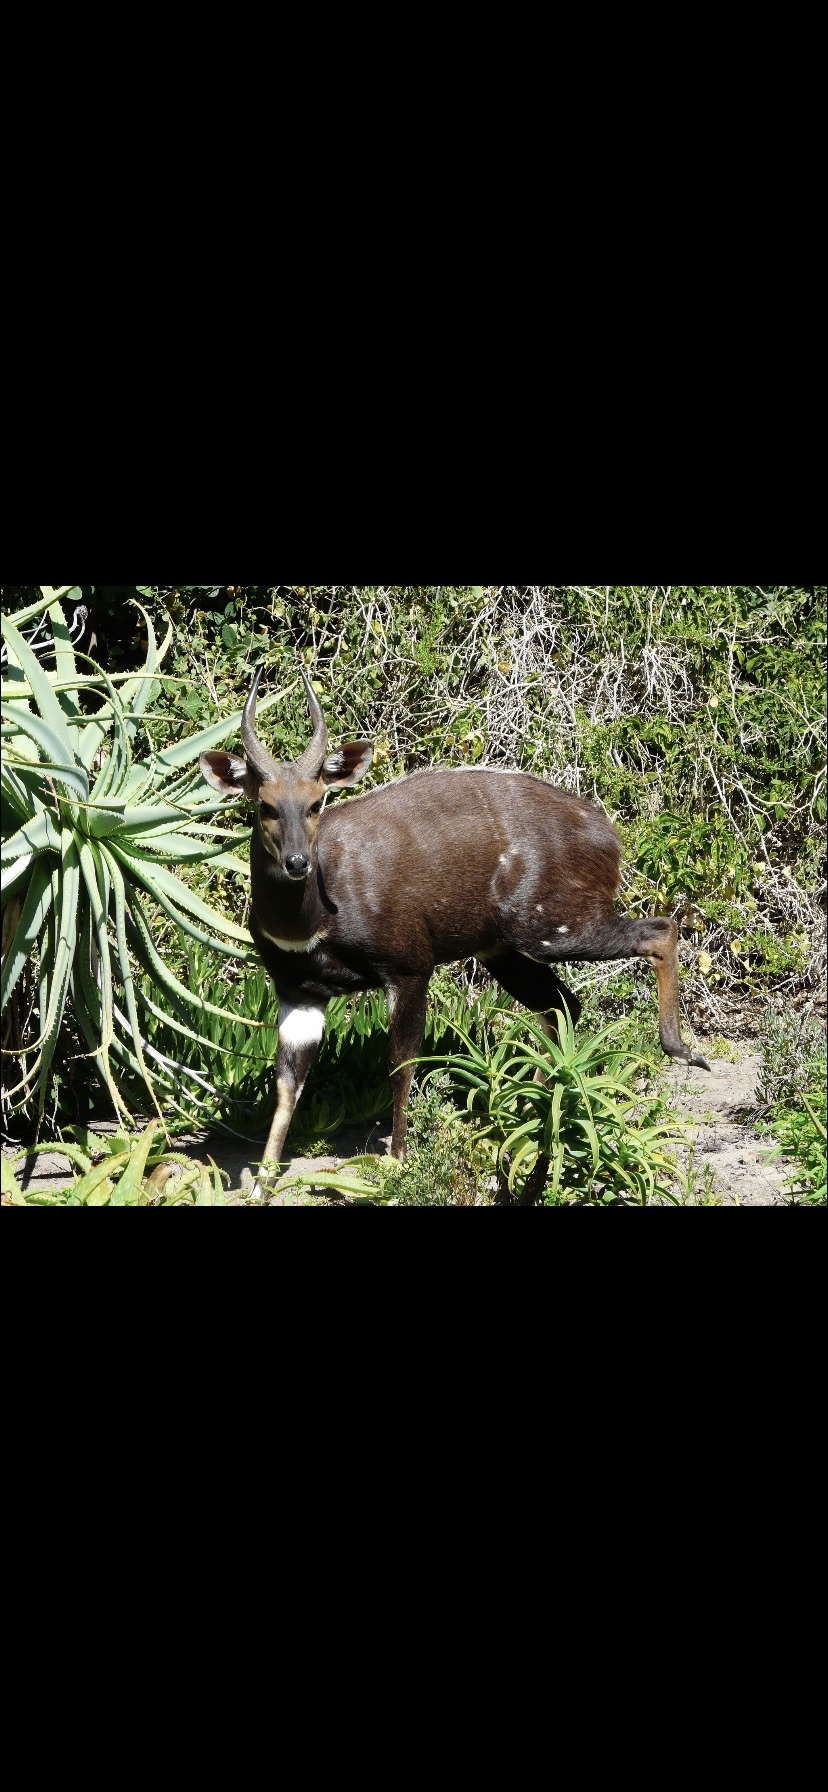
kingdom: Animalia
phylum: Chordata
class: Mammalia
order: Artiodactyla
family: Bovidae
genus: Tragelaphus
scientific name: Tragelaphus scriptus
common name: Bushbuck
